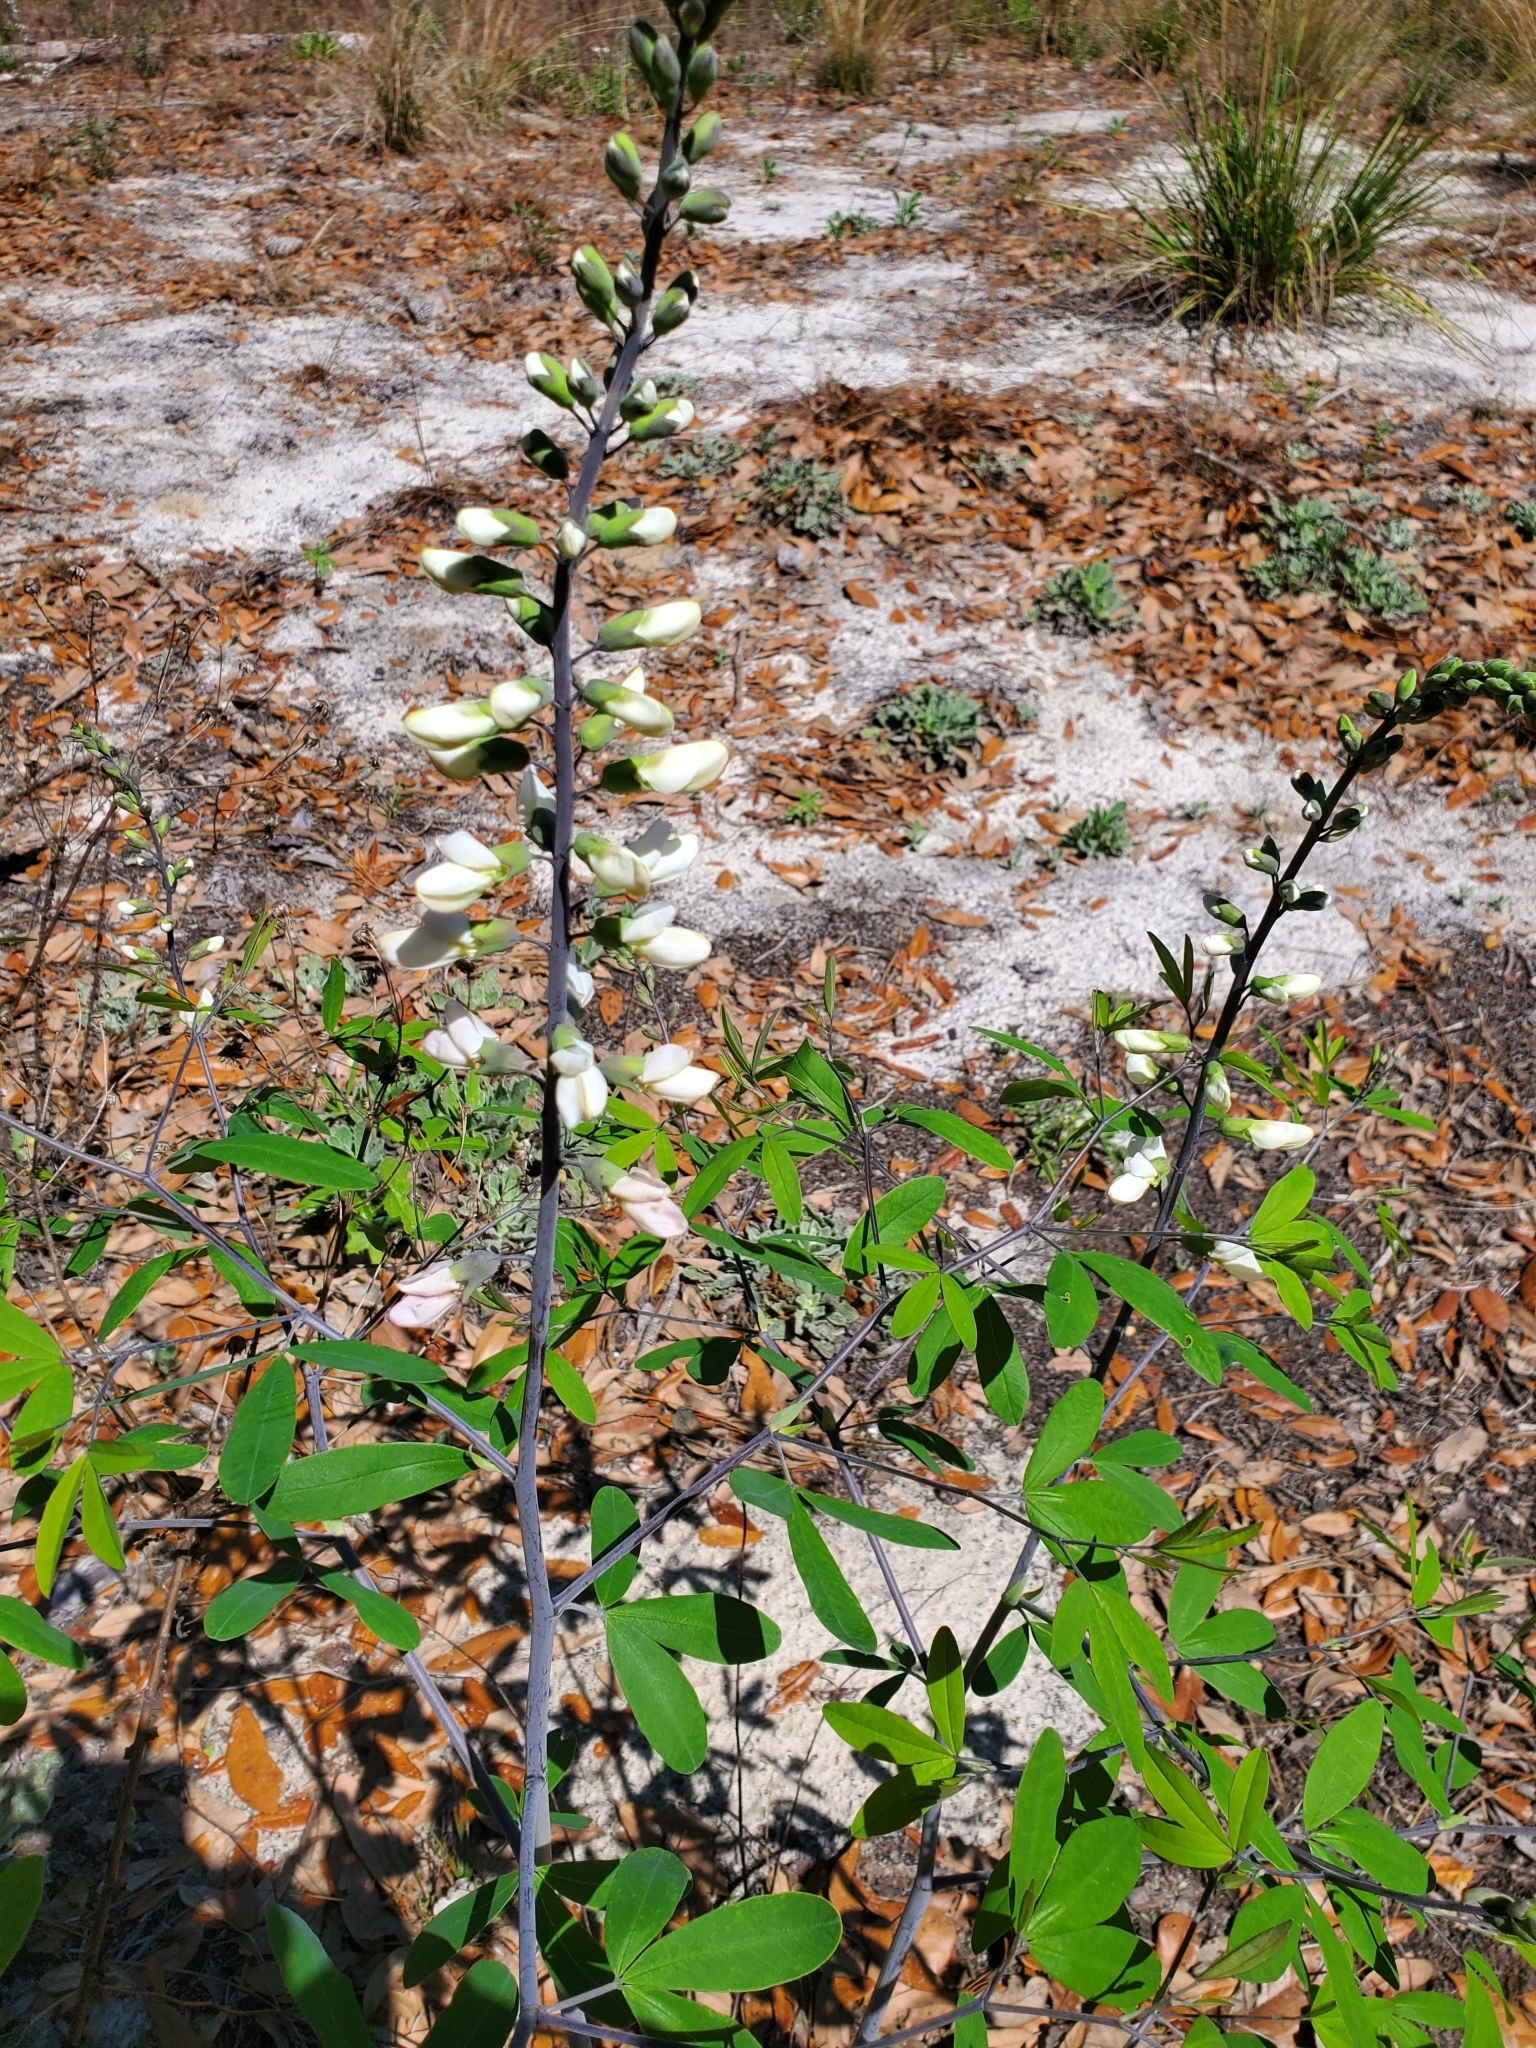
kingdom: Plantae
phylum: Tracheophyta
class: Magnoliopsida
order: Fabales
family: Fabaceae
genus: Baptisia
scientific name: Baptisia alba
